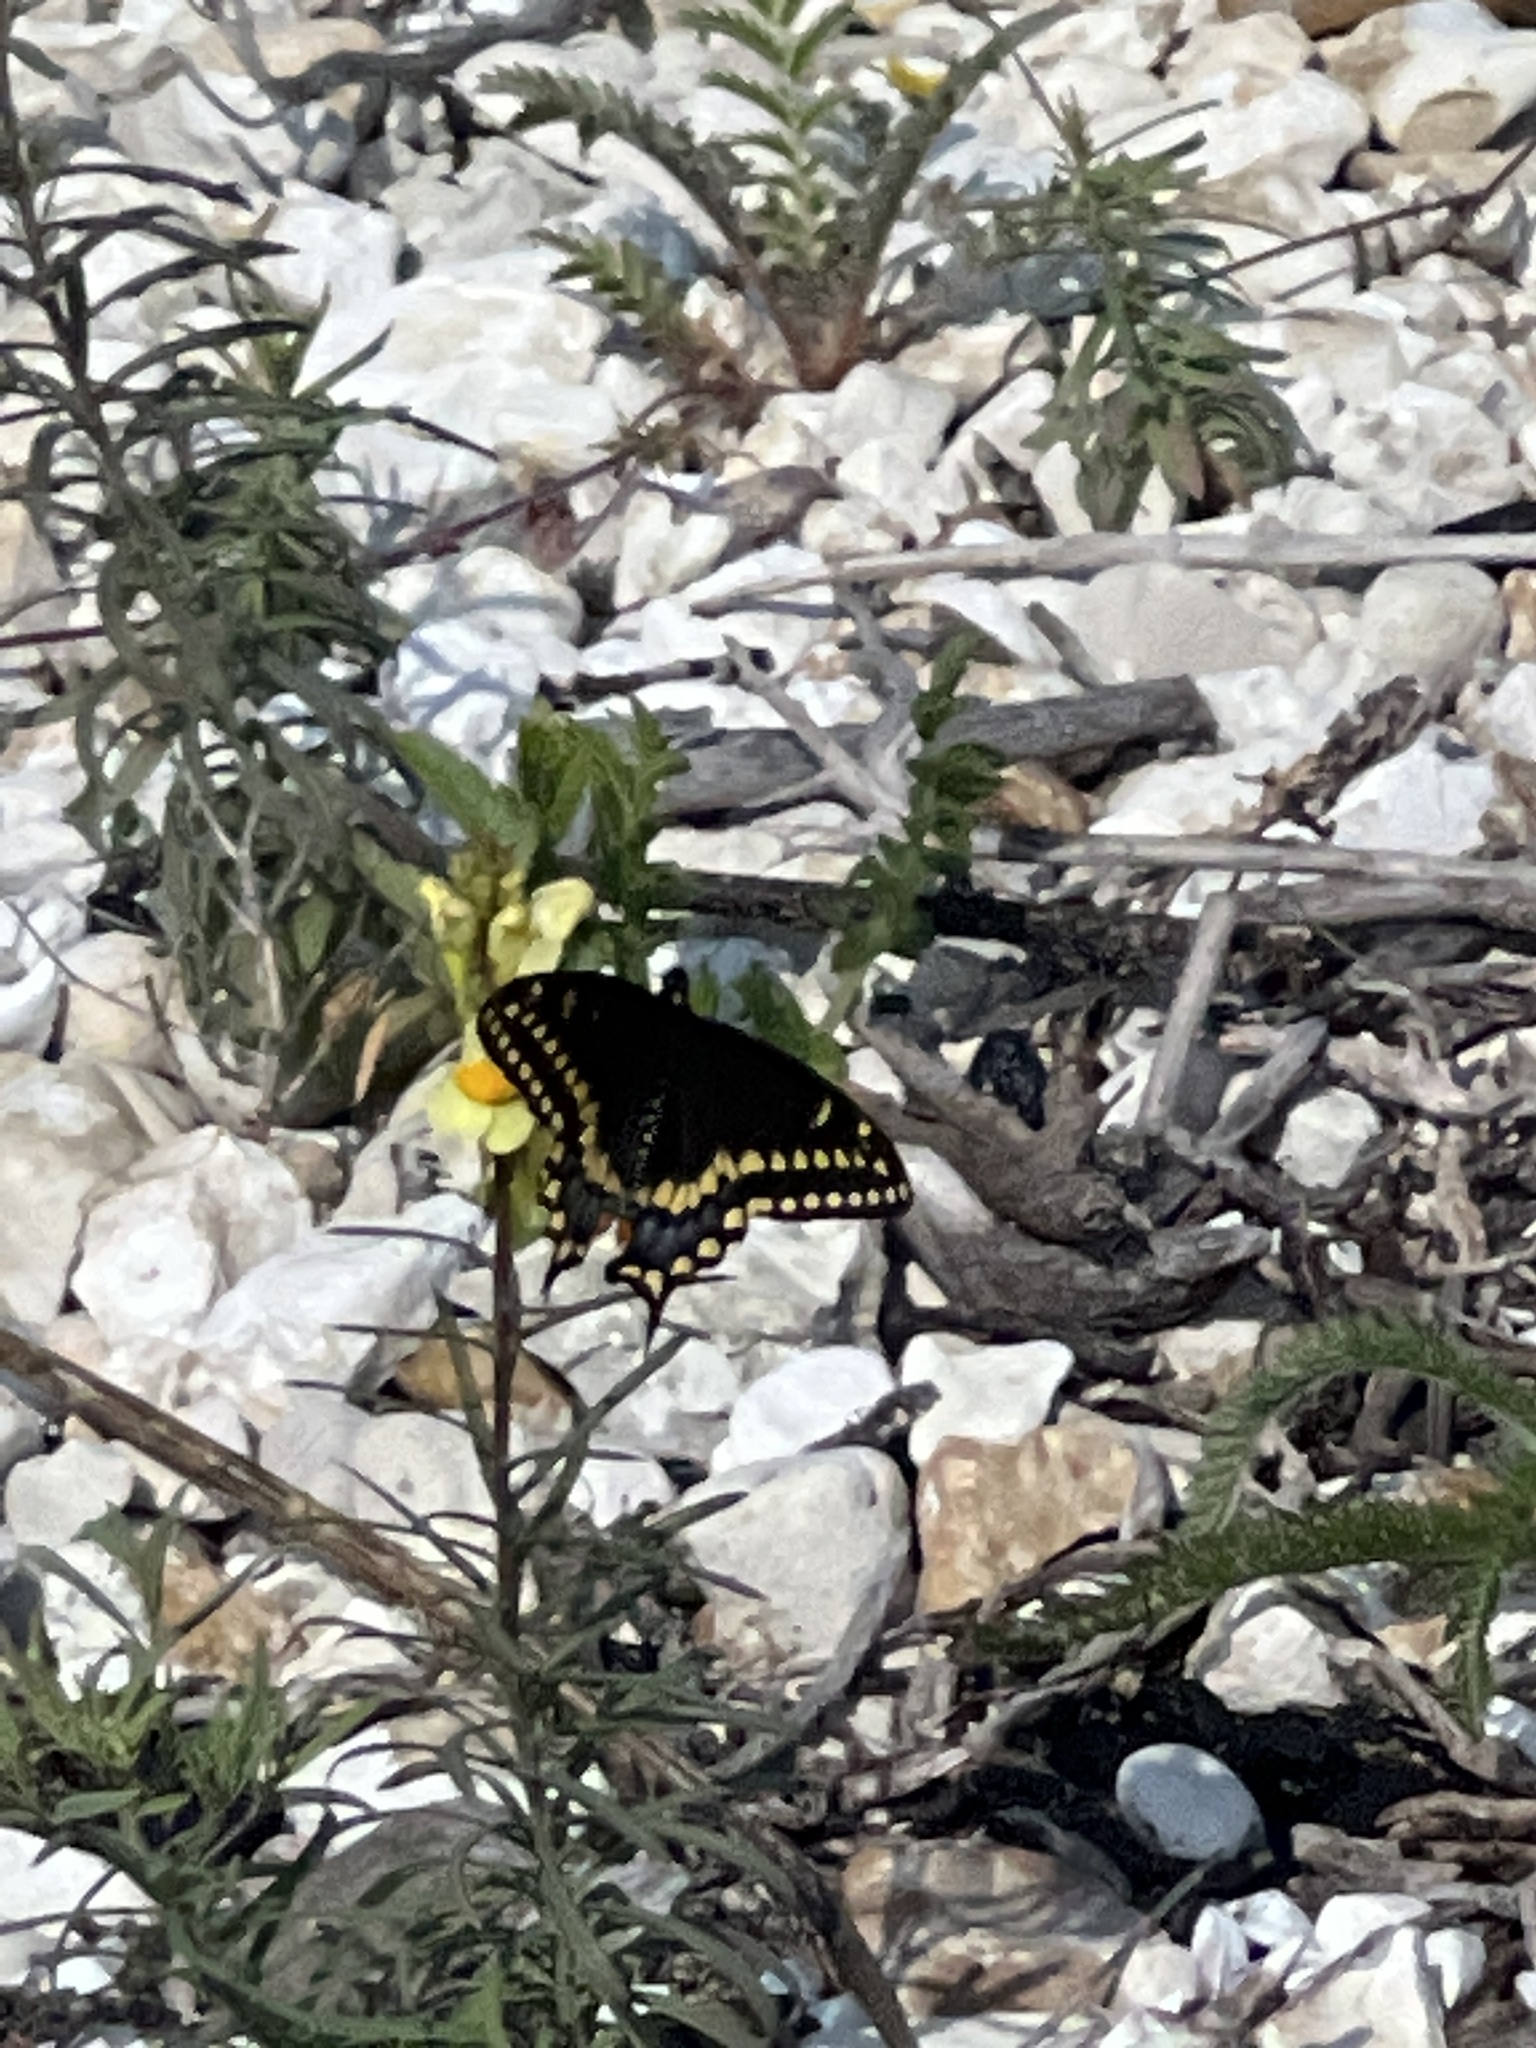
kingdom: Animalia
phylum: Arthropoda
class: Insecta
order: Lepidoptera
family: Papilionidae
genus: Papilio
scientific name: Papilio polyxenes
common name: Black swallowtail
